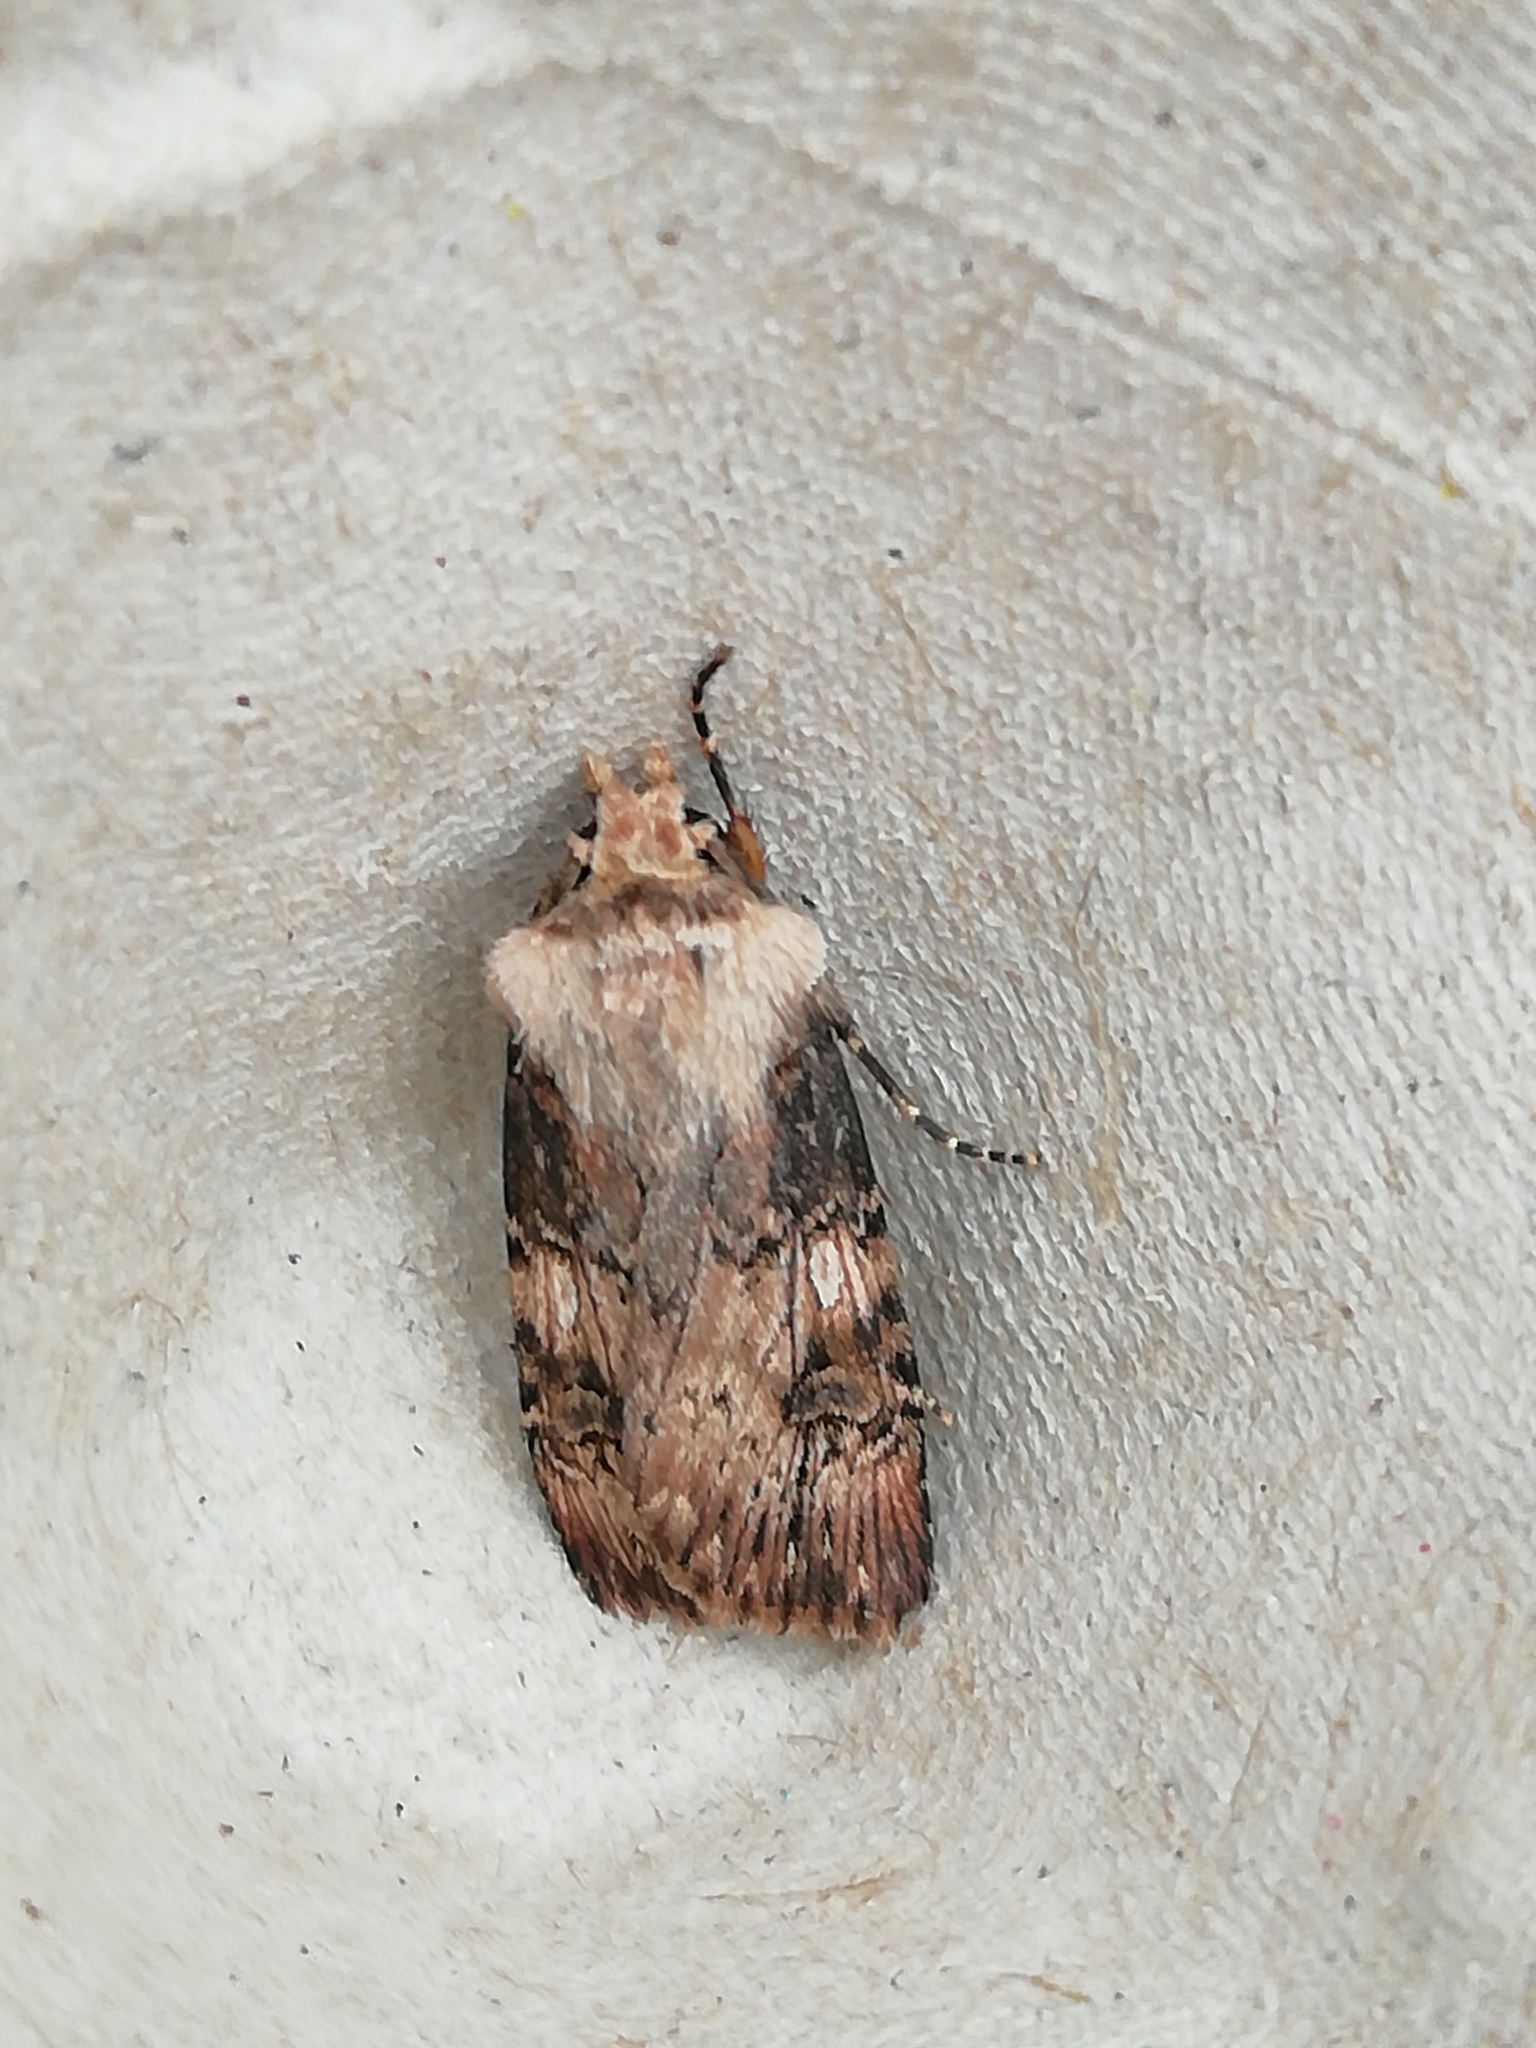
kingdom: Animalia
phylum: Arthropoda
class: Insecta
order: Lepidoptera
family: Noctuidae
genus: Agrotis
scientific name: Agrotis puta
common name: Shuttle-shaped dart
